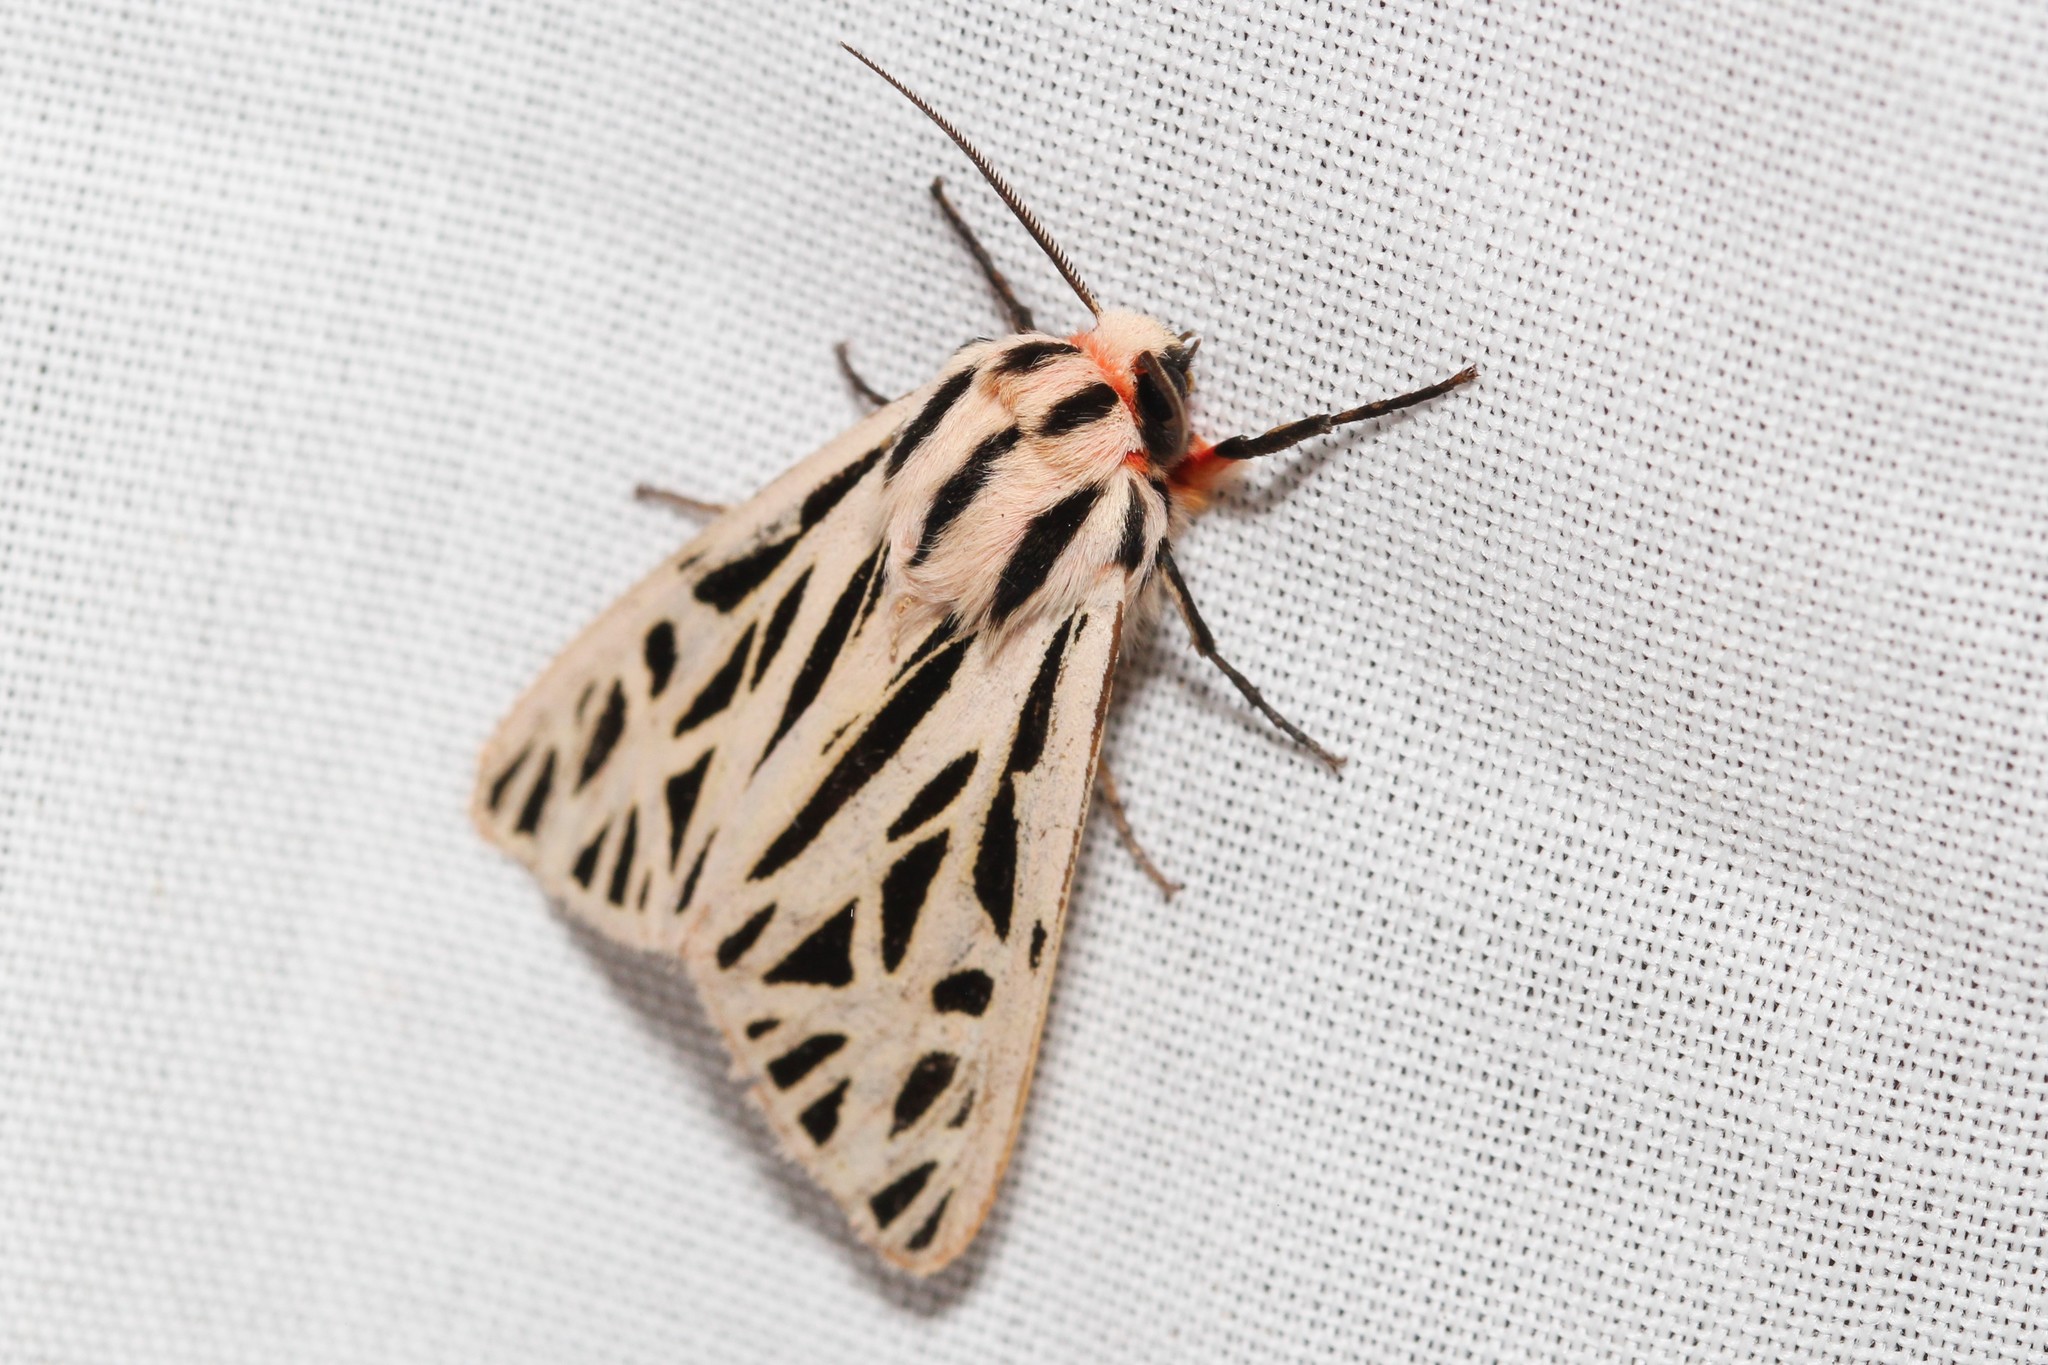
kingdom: Animalia
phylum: Arthropoda
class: Insecta
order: Lepidoptera
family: Erebidae
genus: Apantesis
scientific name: Apantesis arge
